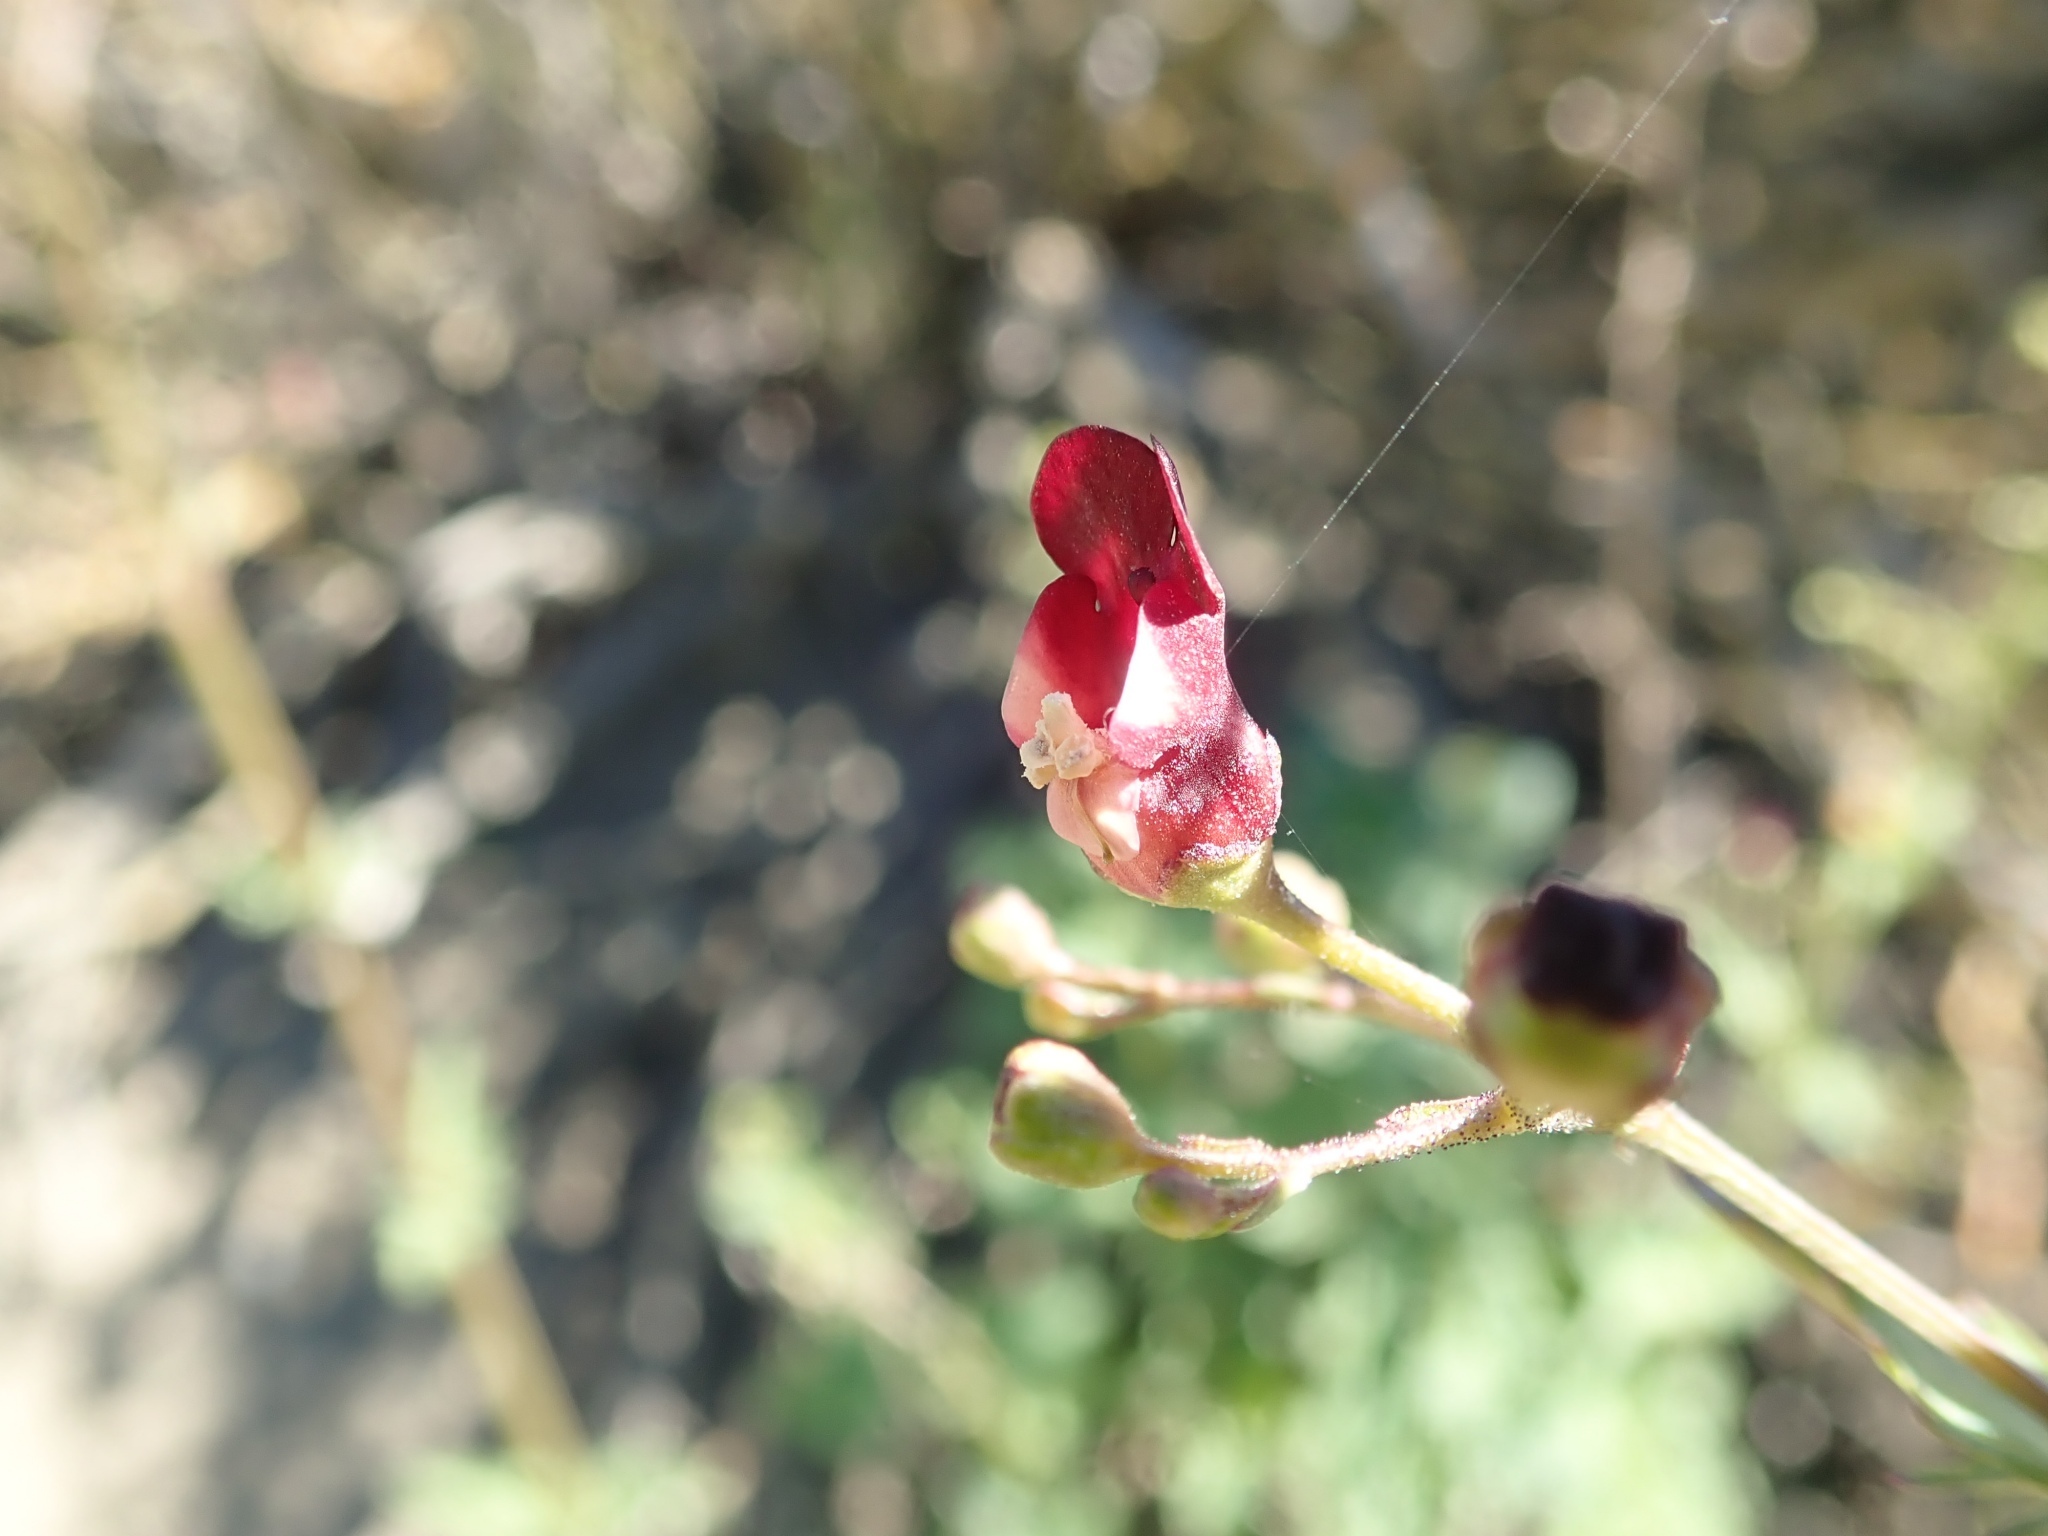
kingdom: Plantae
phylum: Tracheophyta
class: Magnoliopsida
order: Lamiales
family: Scrophulariaceae
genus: Scrophularia
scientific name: Scrophularia californica
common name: California figwort
